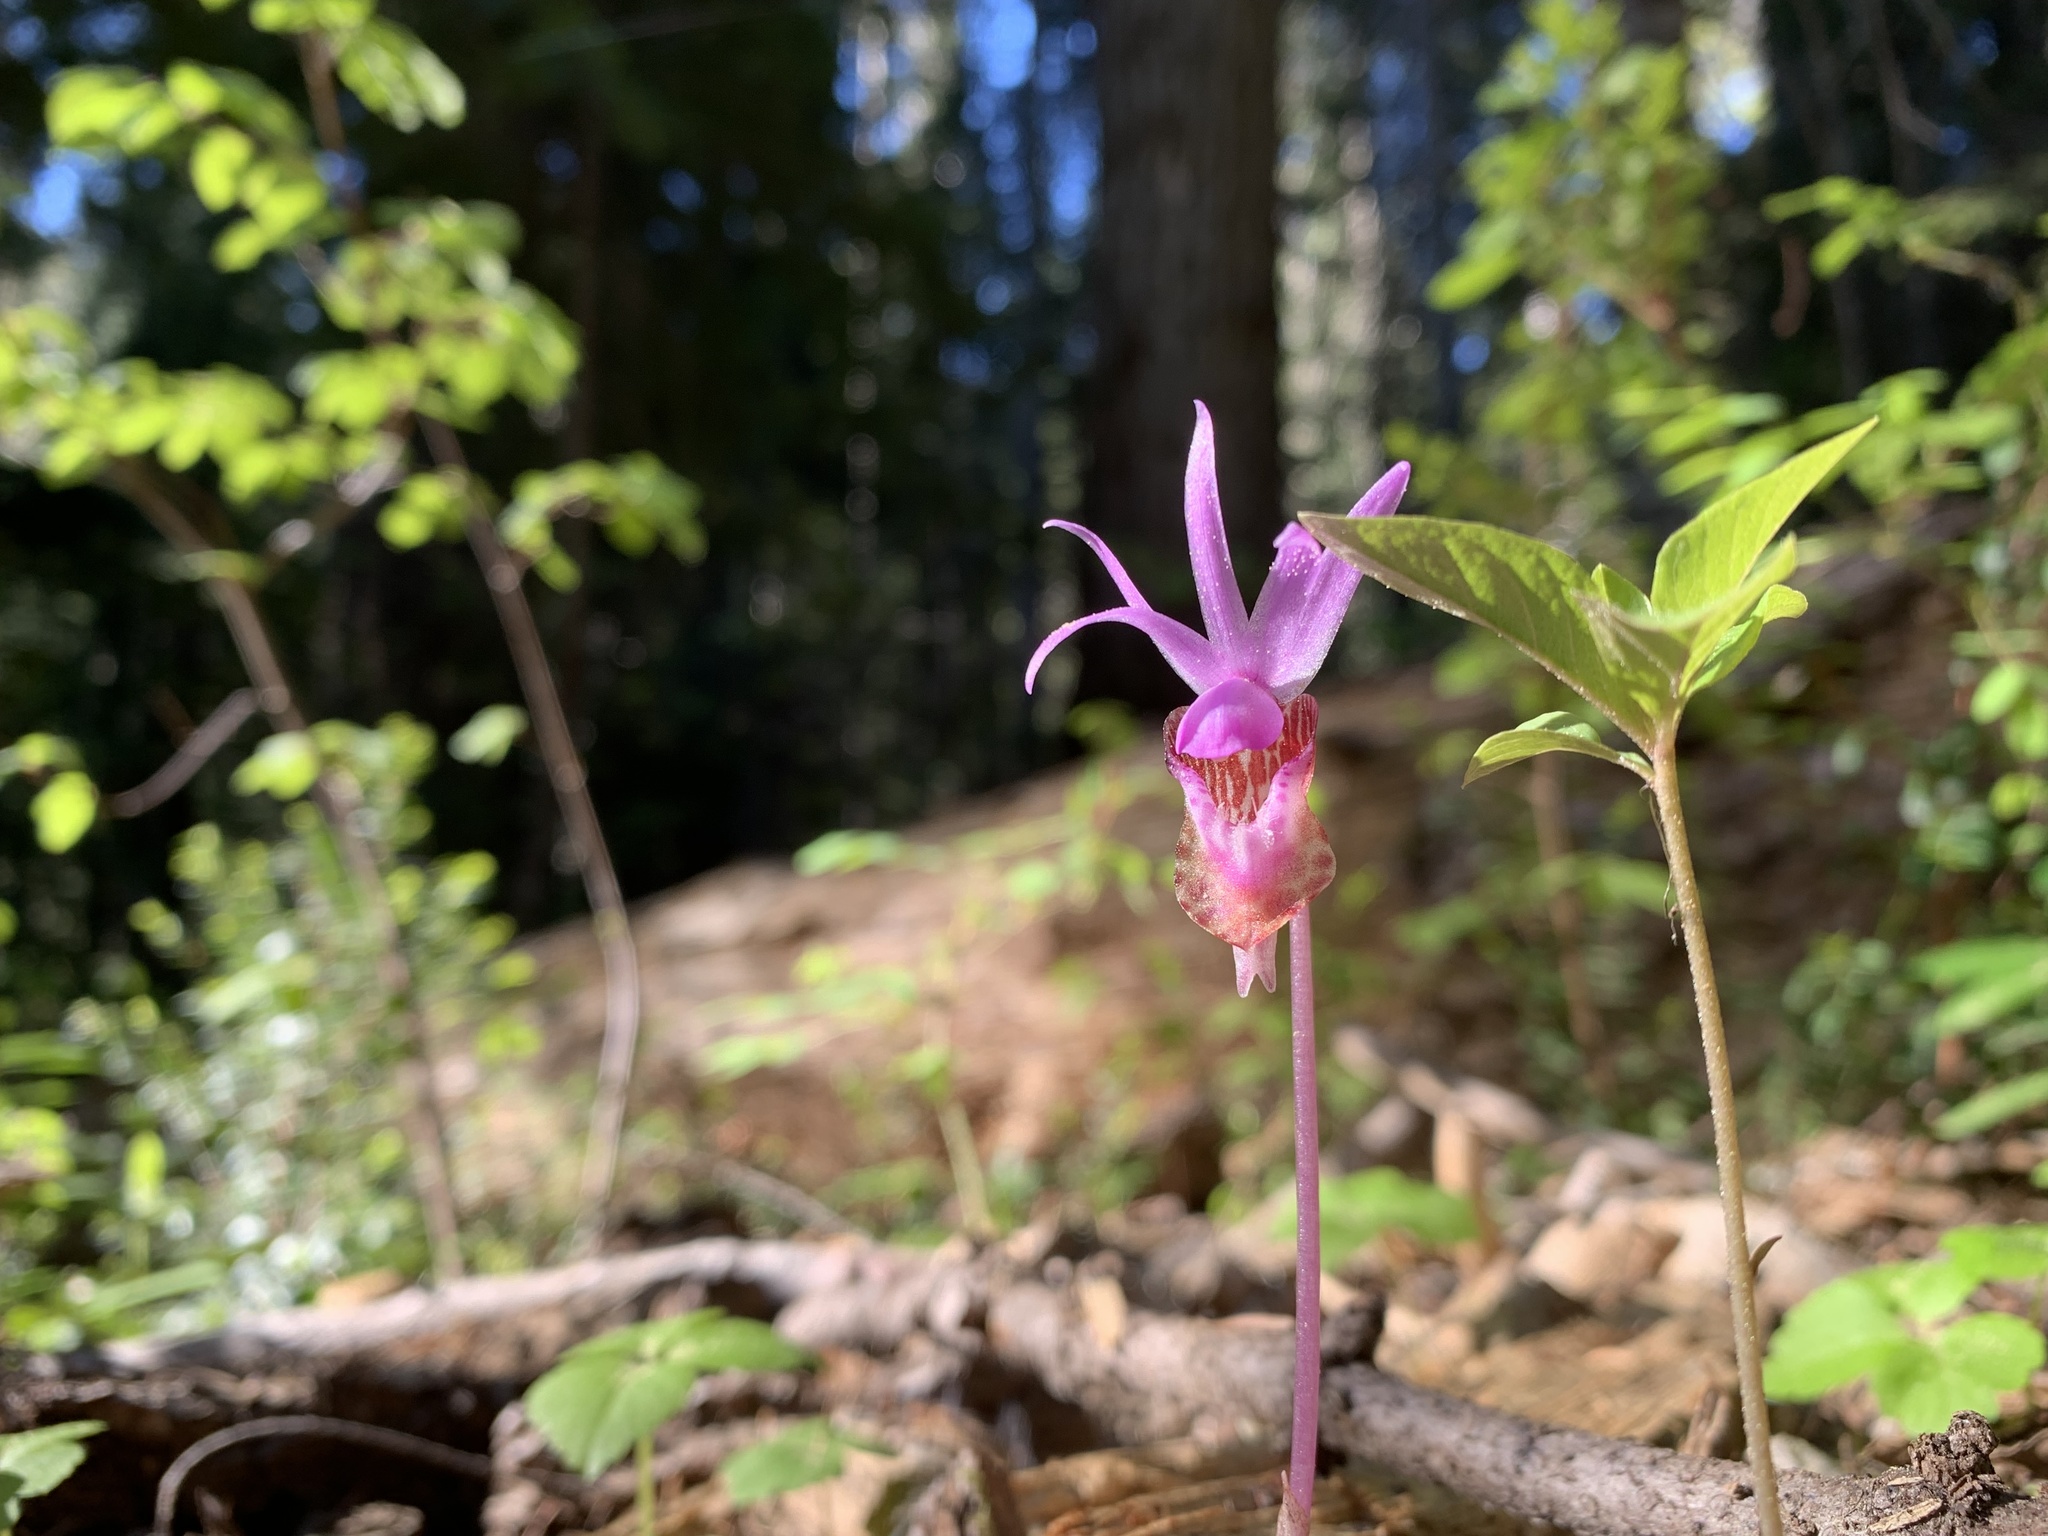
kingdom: Plantae
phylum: Tracheophyta
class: Liliopsida
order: Asparagales
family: Orchidaceae
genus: Calypso
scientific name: Calypso bulbosa
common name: Calypso
